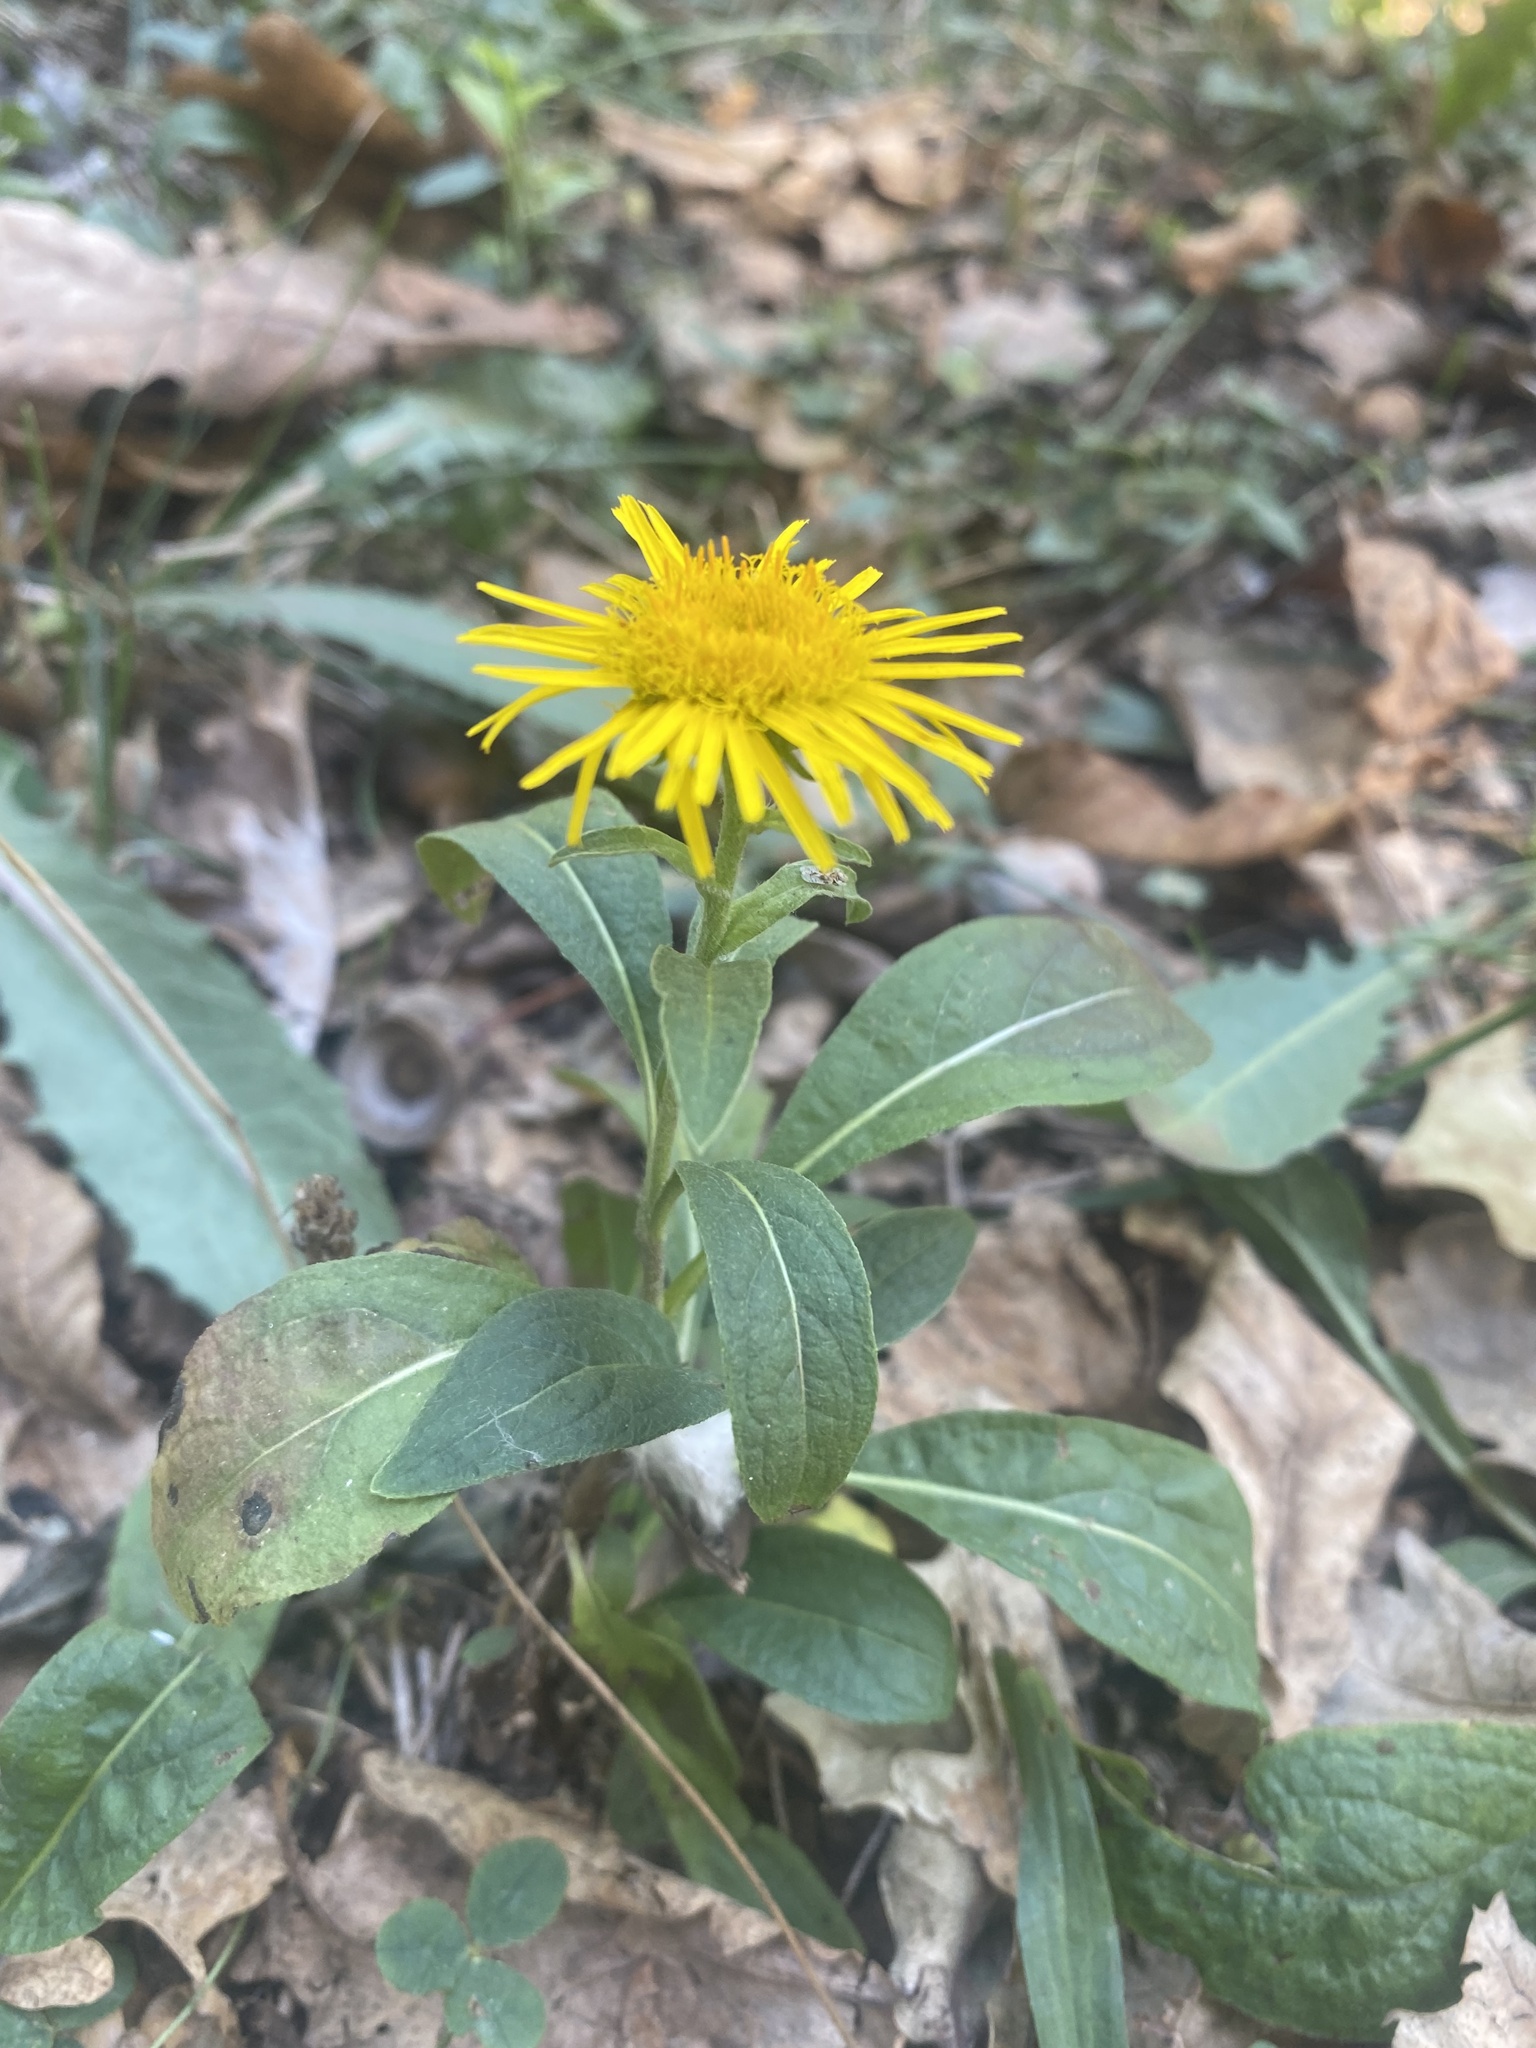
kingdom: Plantae
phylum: Tracheophyta
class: Magnoliopsida
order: Asterales
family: Asteraceae
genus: Pentanema
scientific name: Pentanema britannicum
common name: British elecampane
